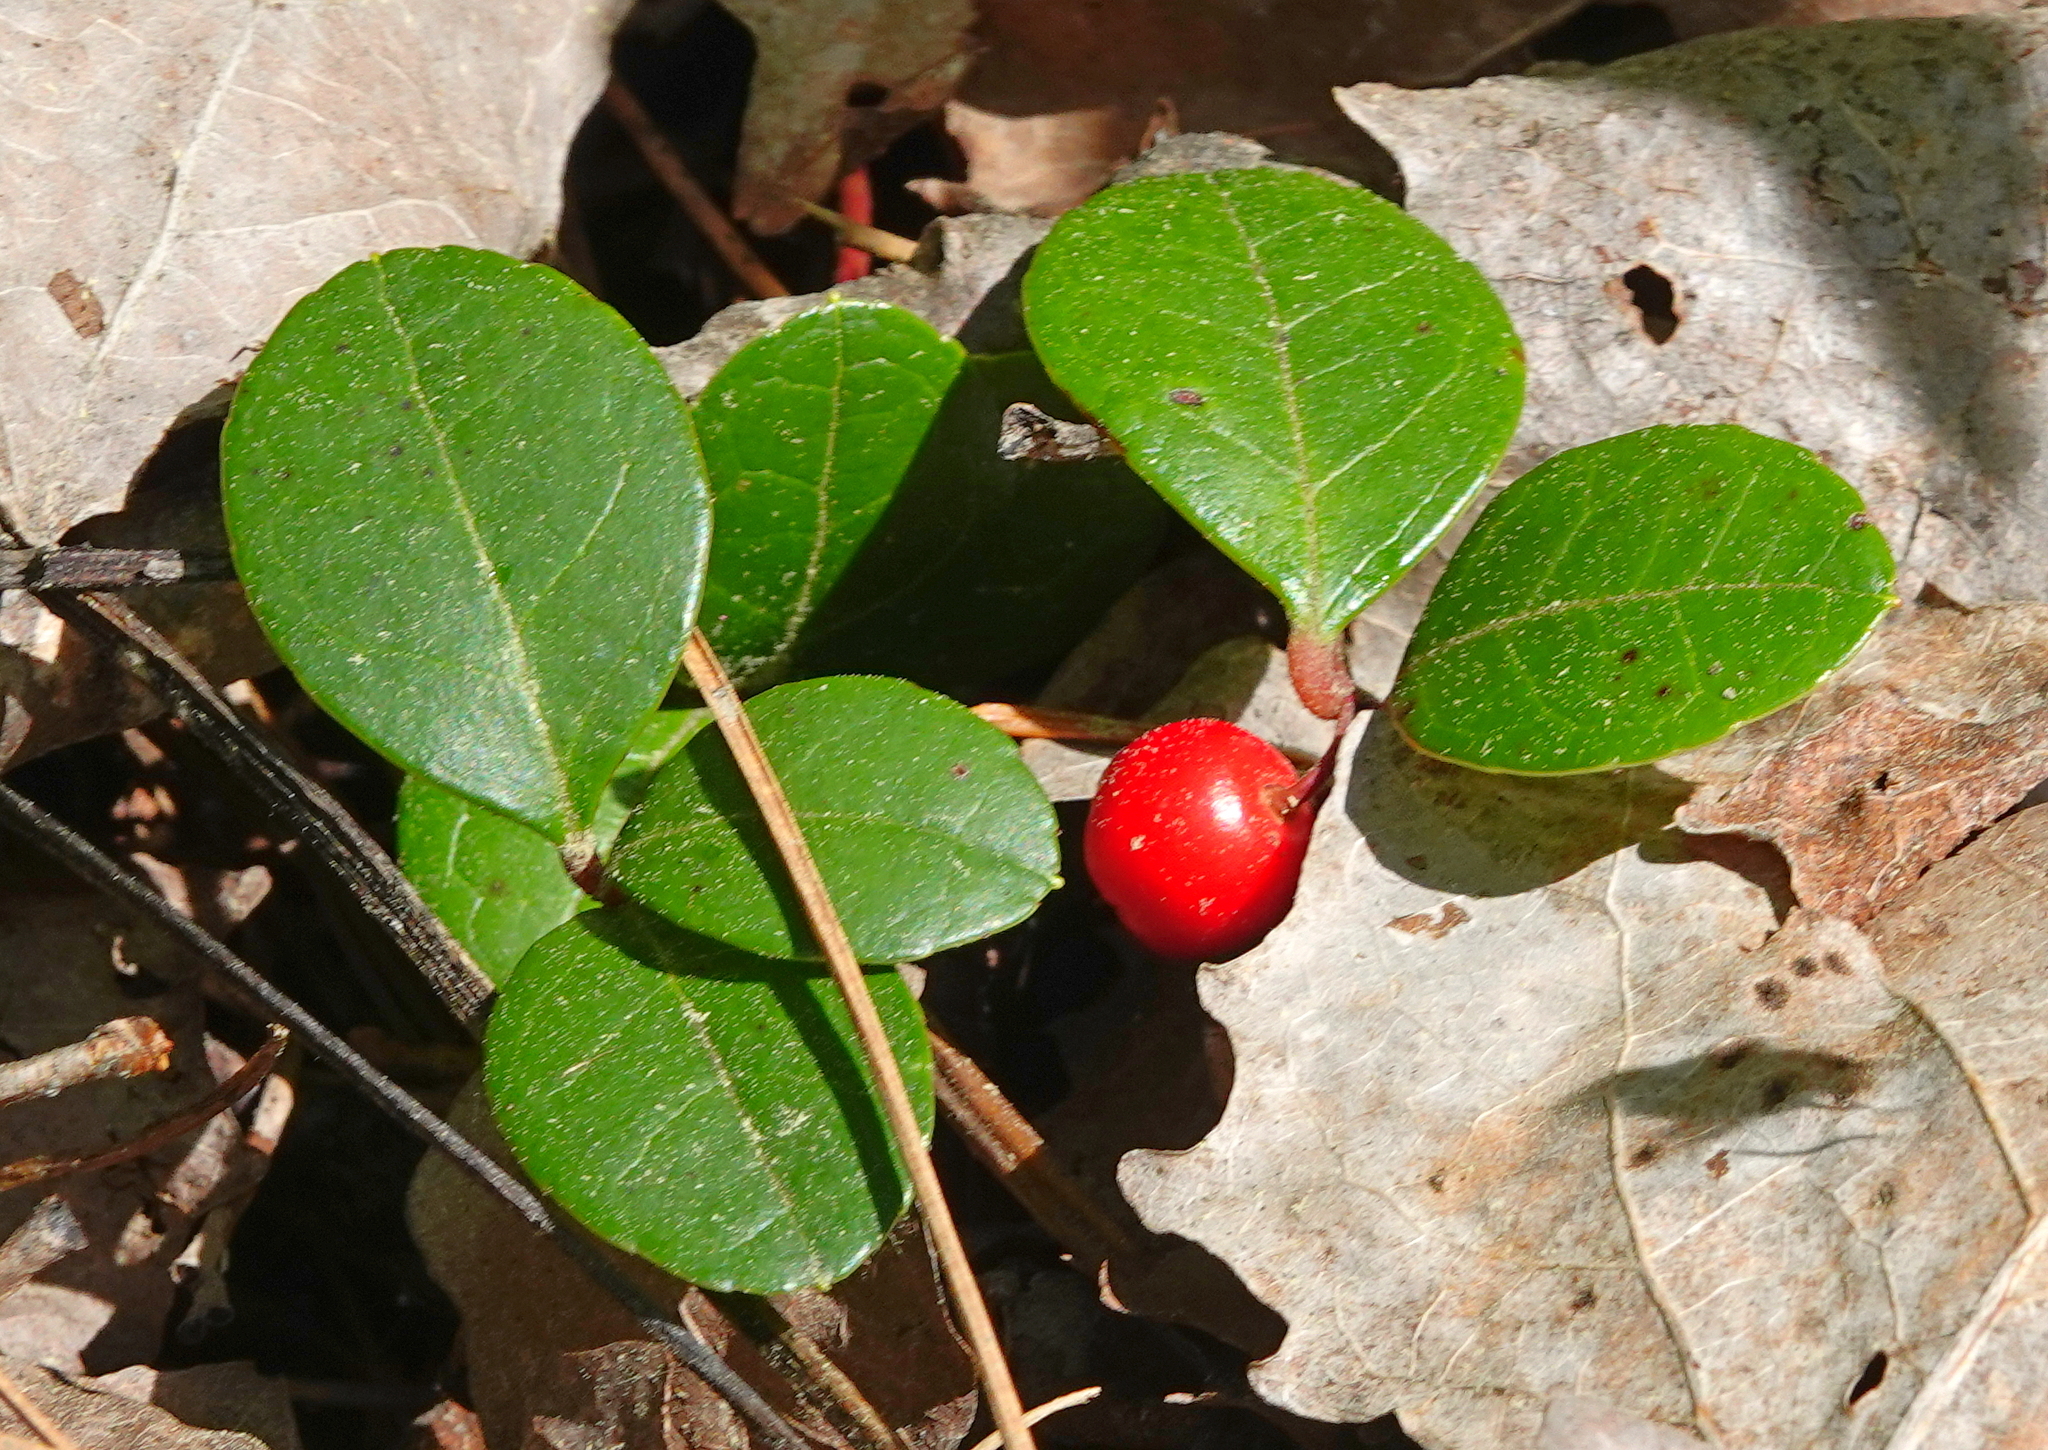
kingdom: Plantae
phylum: Tracheophyta
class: Magnoliopsida
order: Ericales
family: Ericaceae
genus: Gaultheria
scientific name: Gaultheria procumbens
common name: Checkerberry
